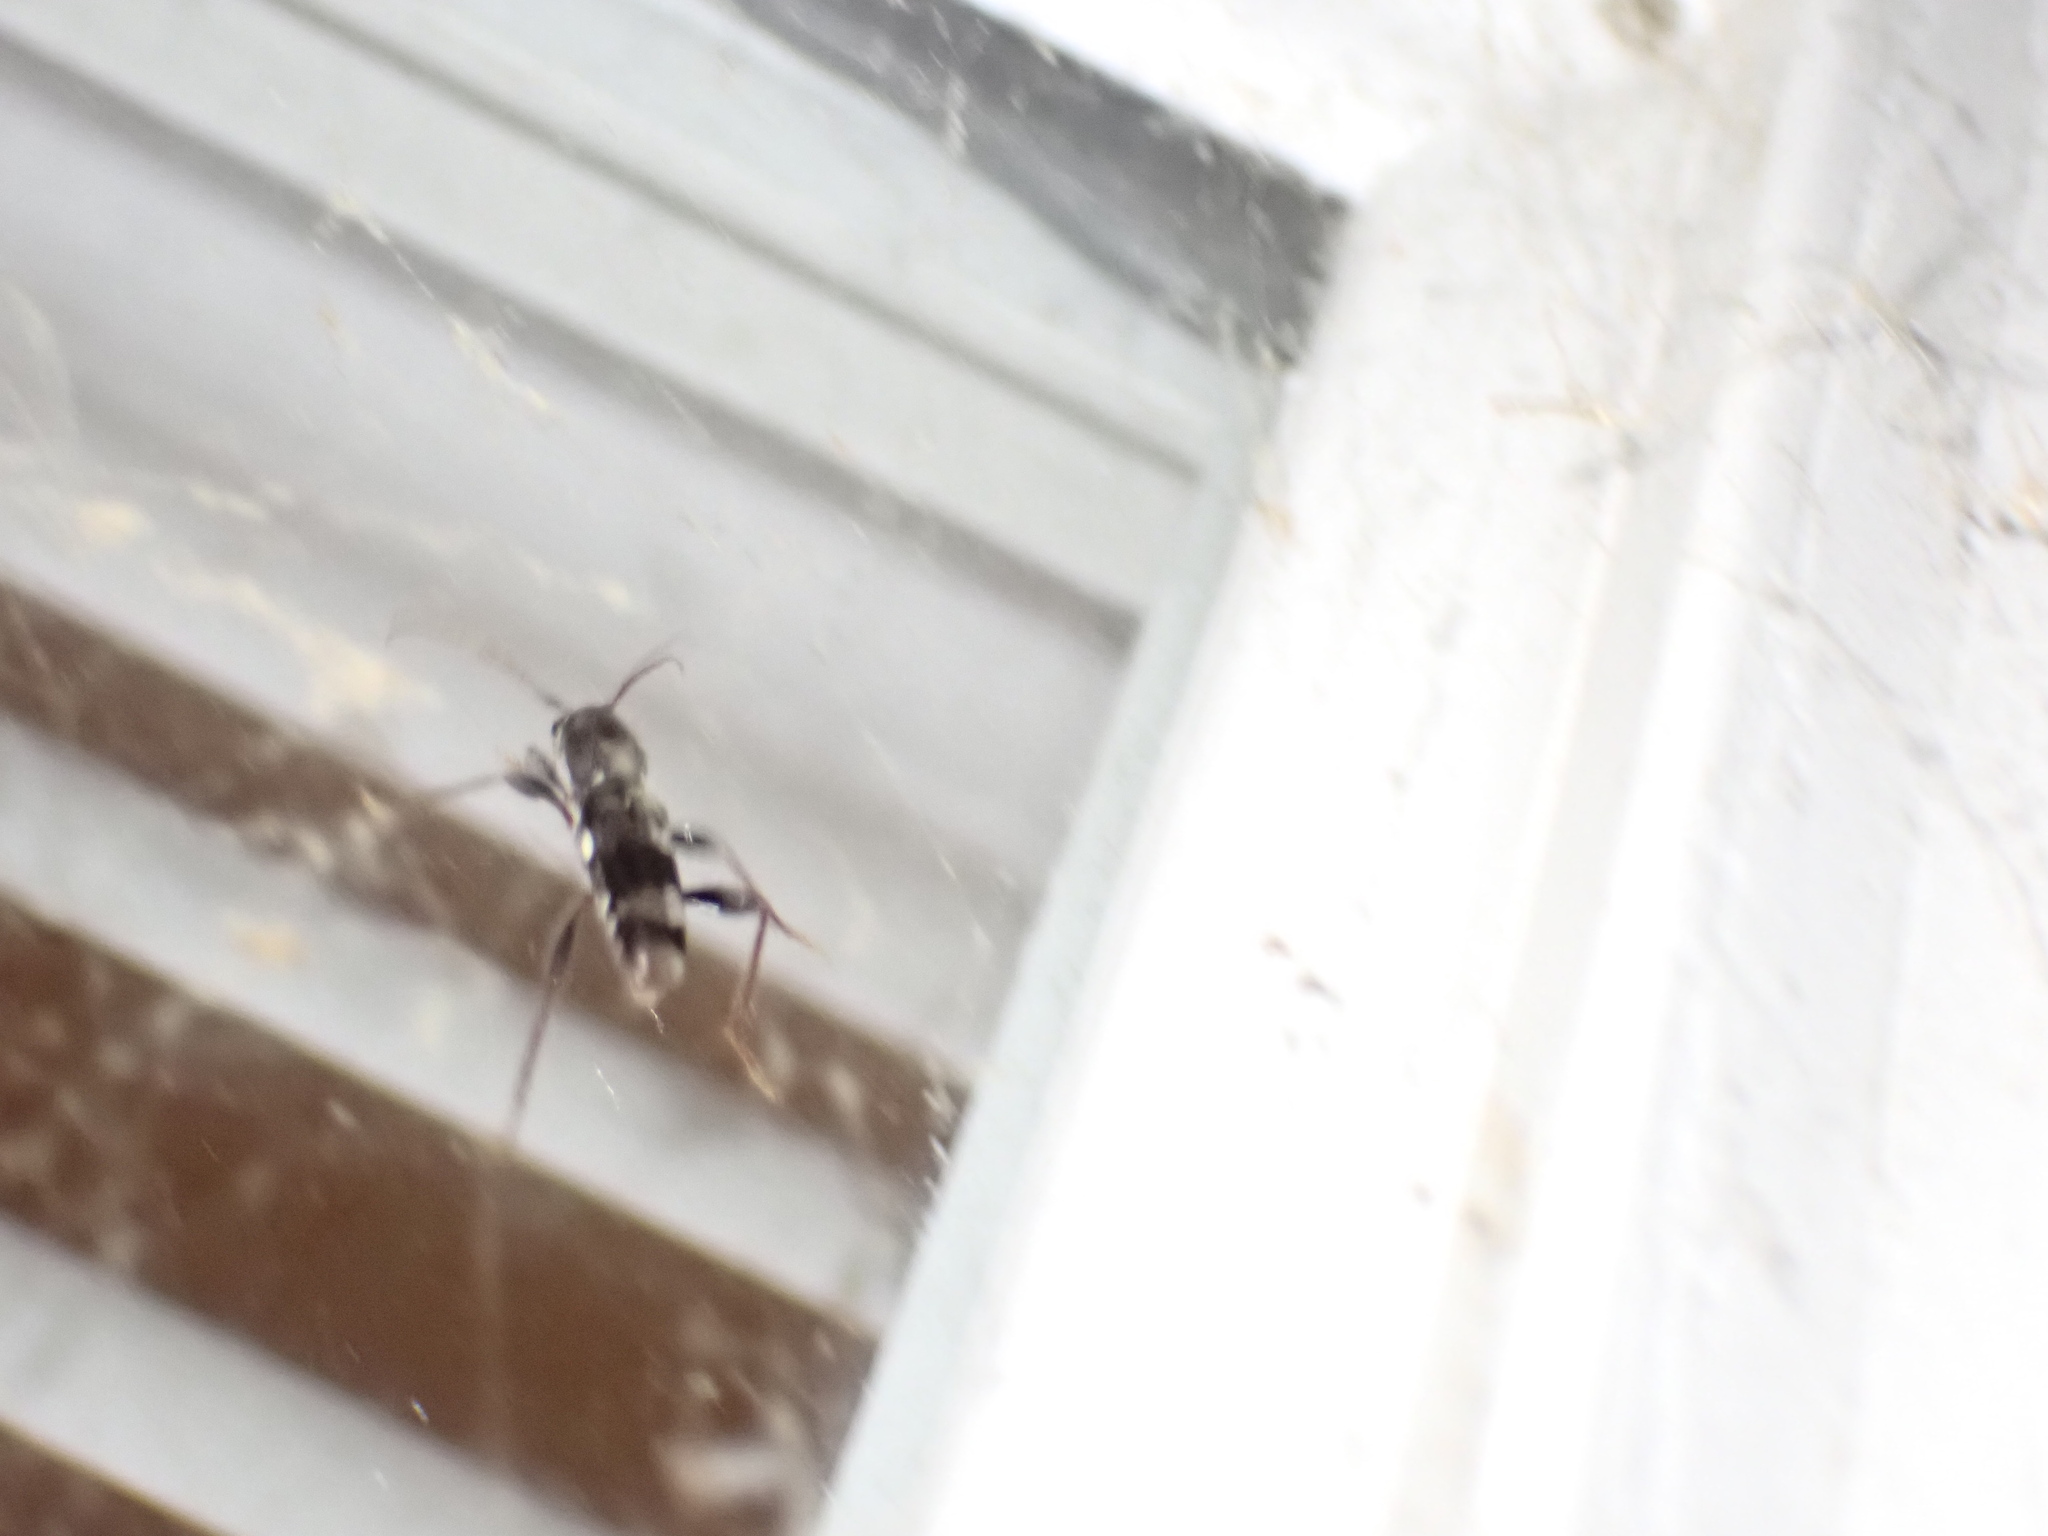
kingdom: Animalia
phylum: Arthropoda
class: Insecta
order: Coleoptera
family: Cerambycidae
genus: Xylotrechus
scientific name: Xylotrechus colonus
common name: Long-horned beetle
